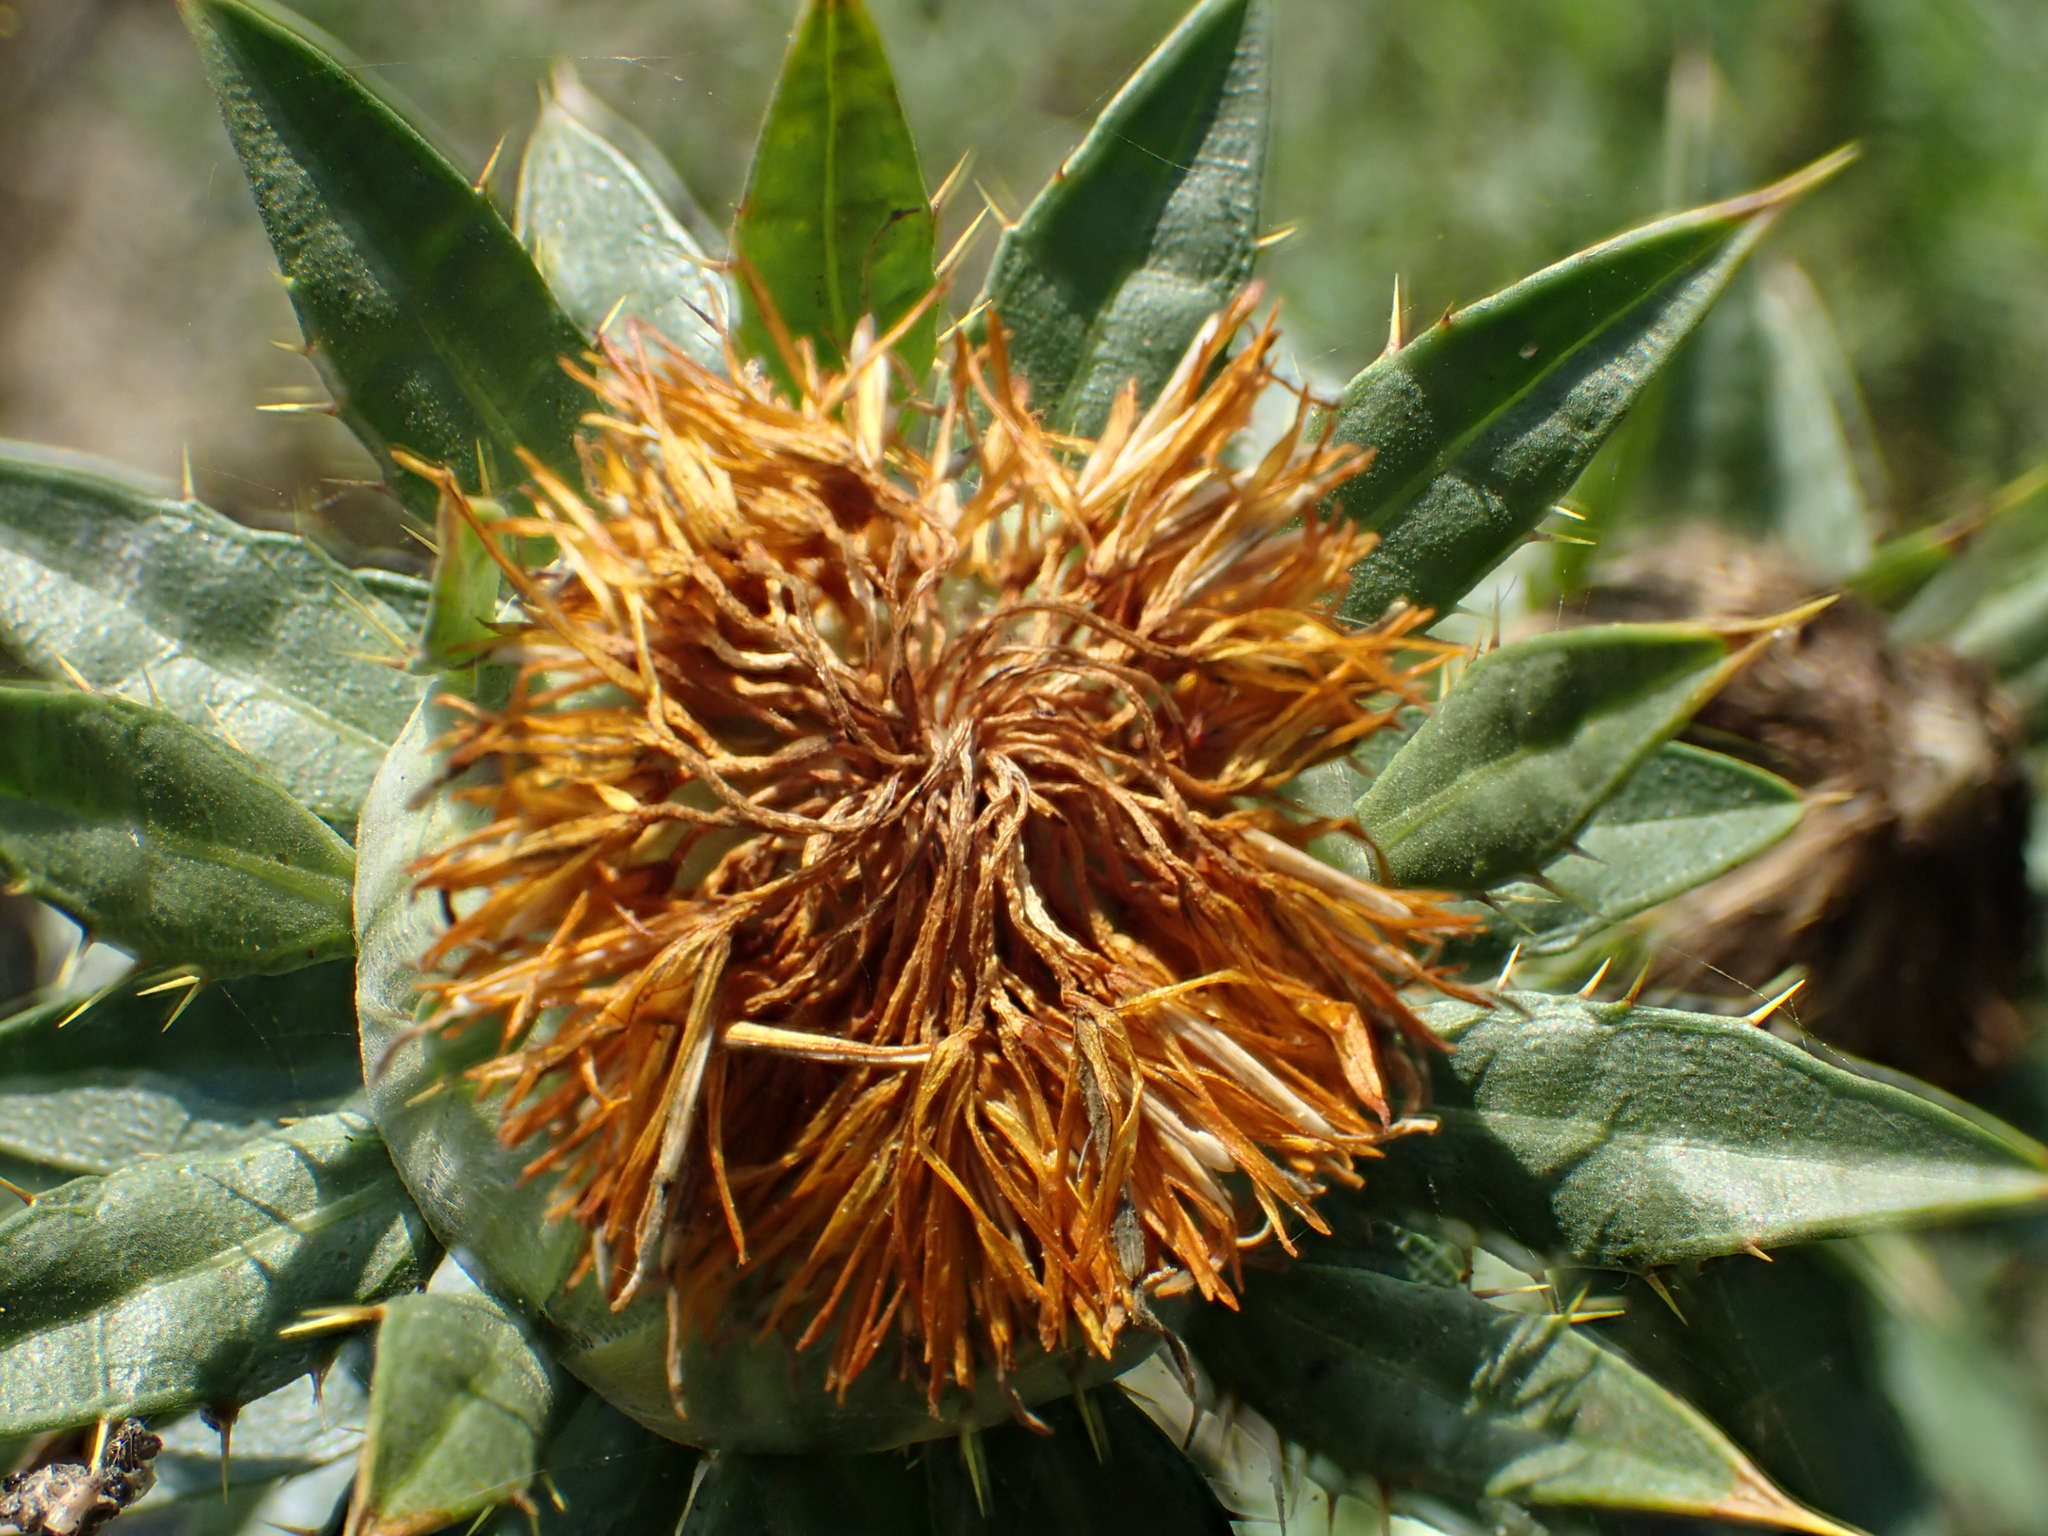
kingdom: Plantae
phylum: Tracheophyta
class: Magnoliopsida
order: Asterales
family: Asteraceae
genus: Carthamus
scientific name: Carthamus tinctorius
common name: Safflower
